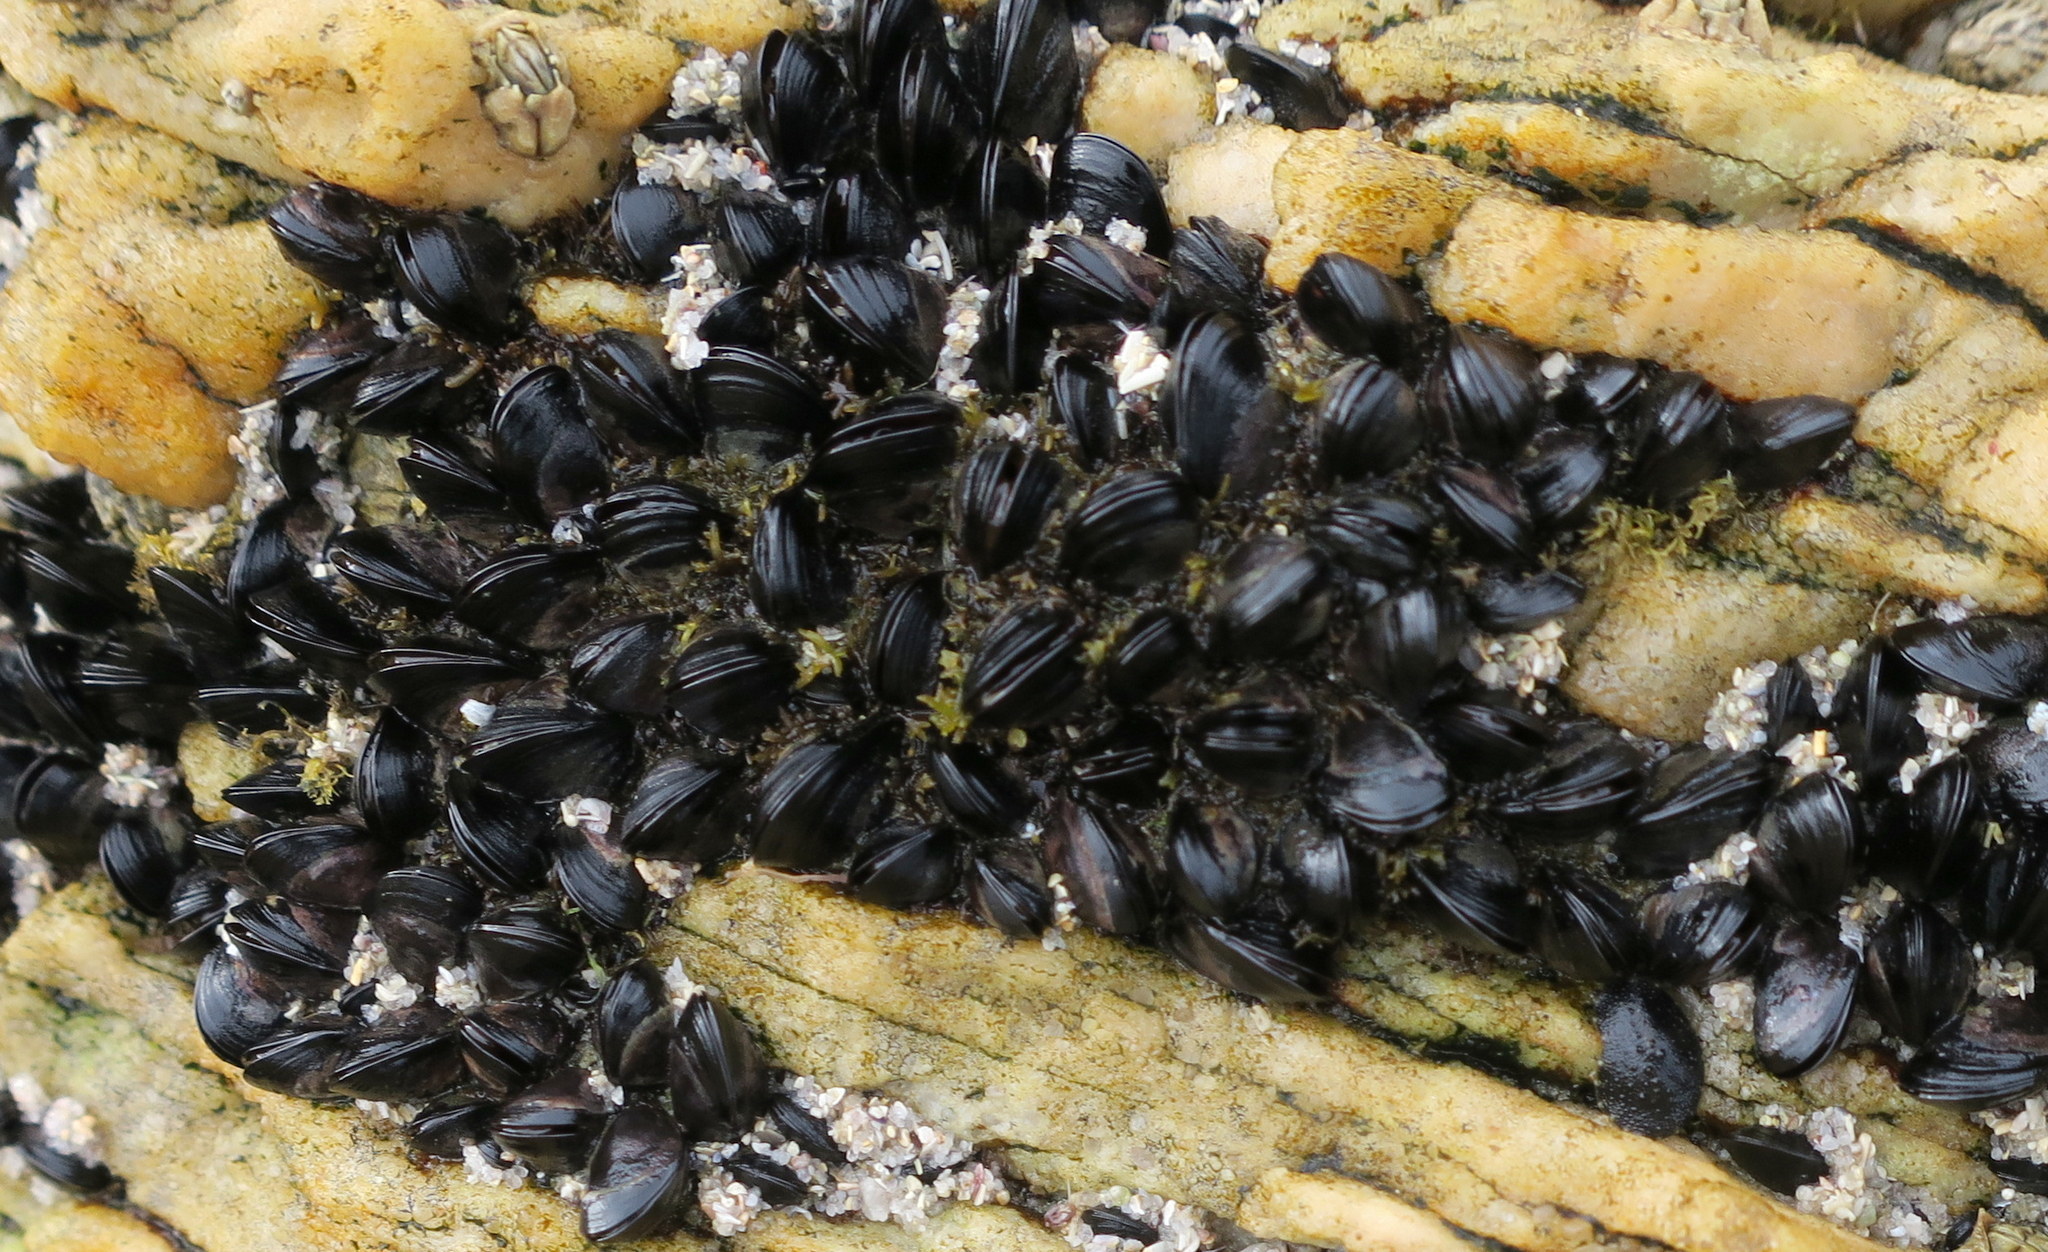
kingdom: Animalia
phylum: Mollusca
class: Bivalvia
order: Mytilida
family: Mytilidae
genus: Xenostrobus
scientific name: Xenostrobus pulex
